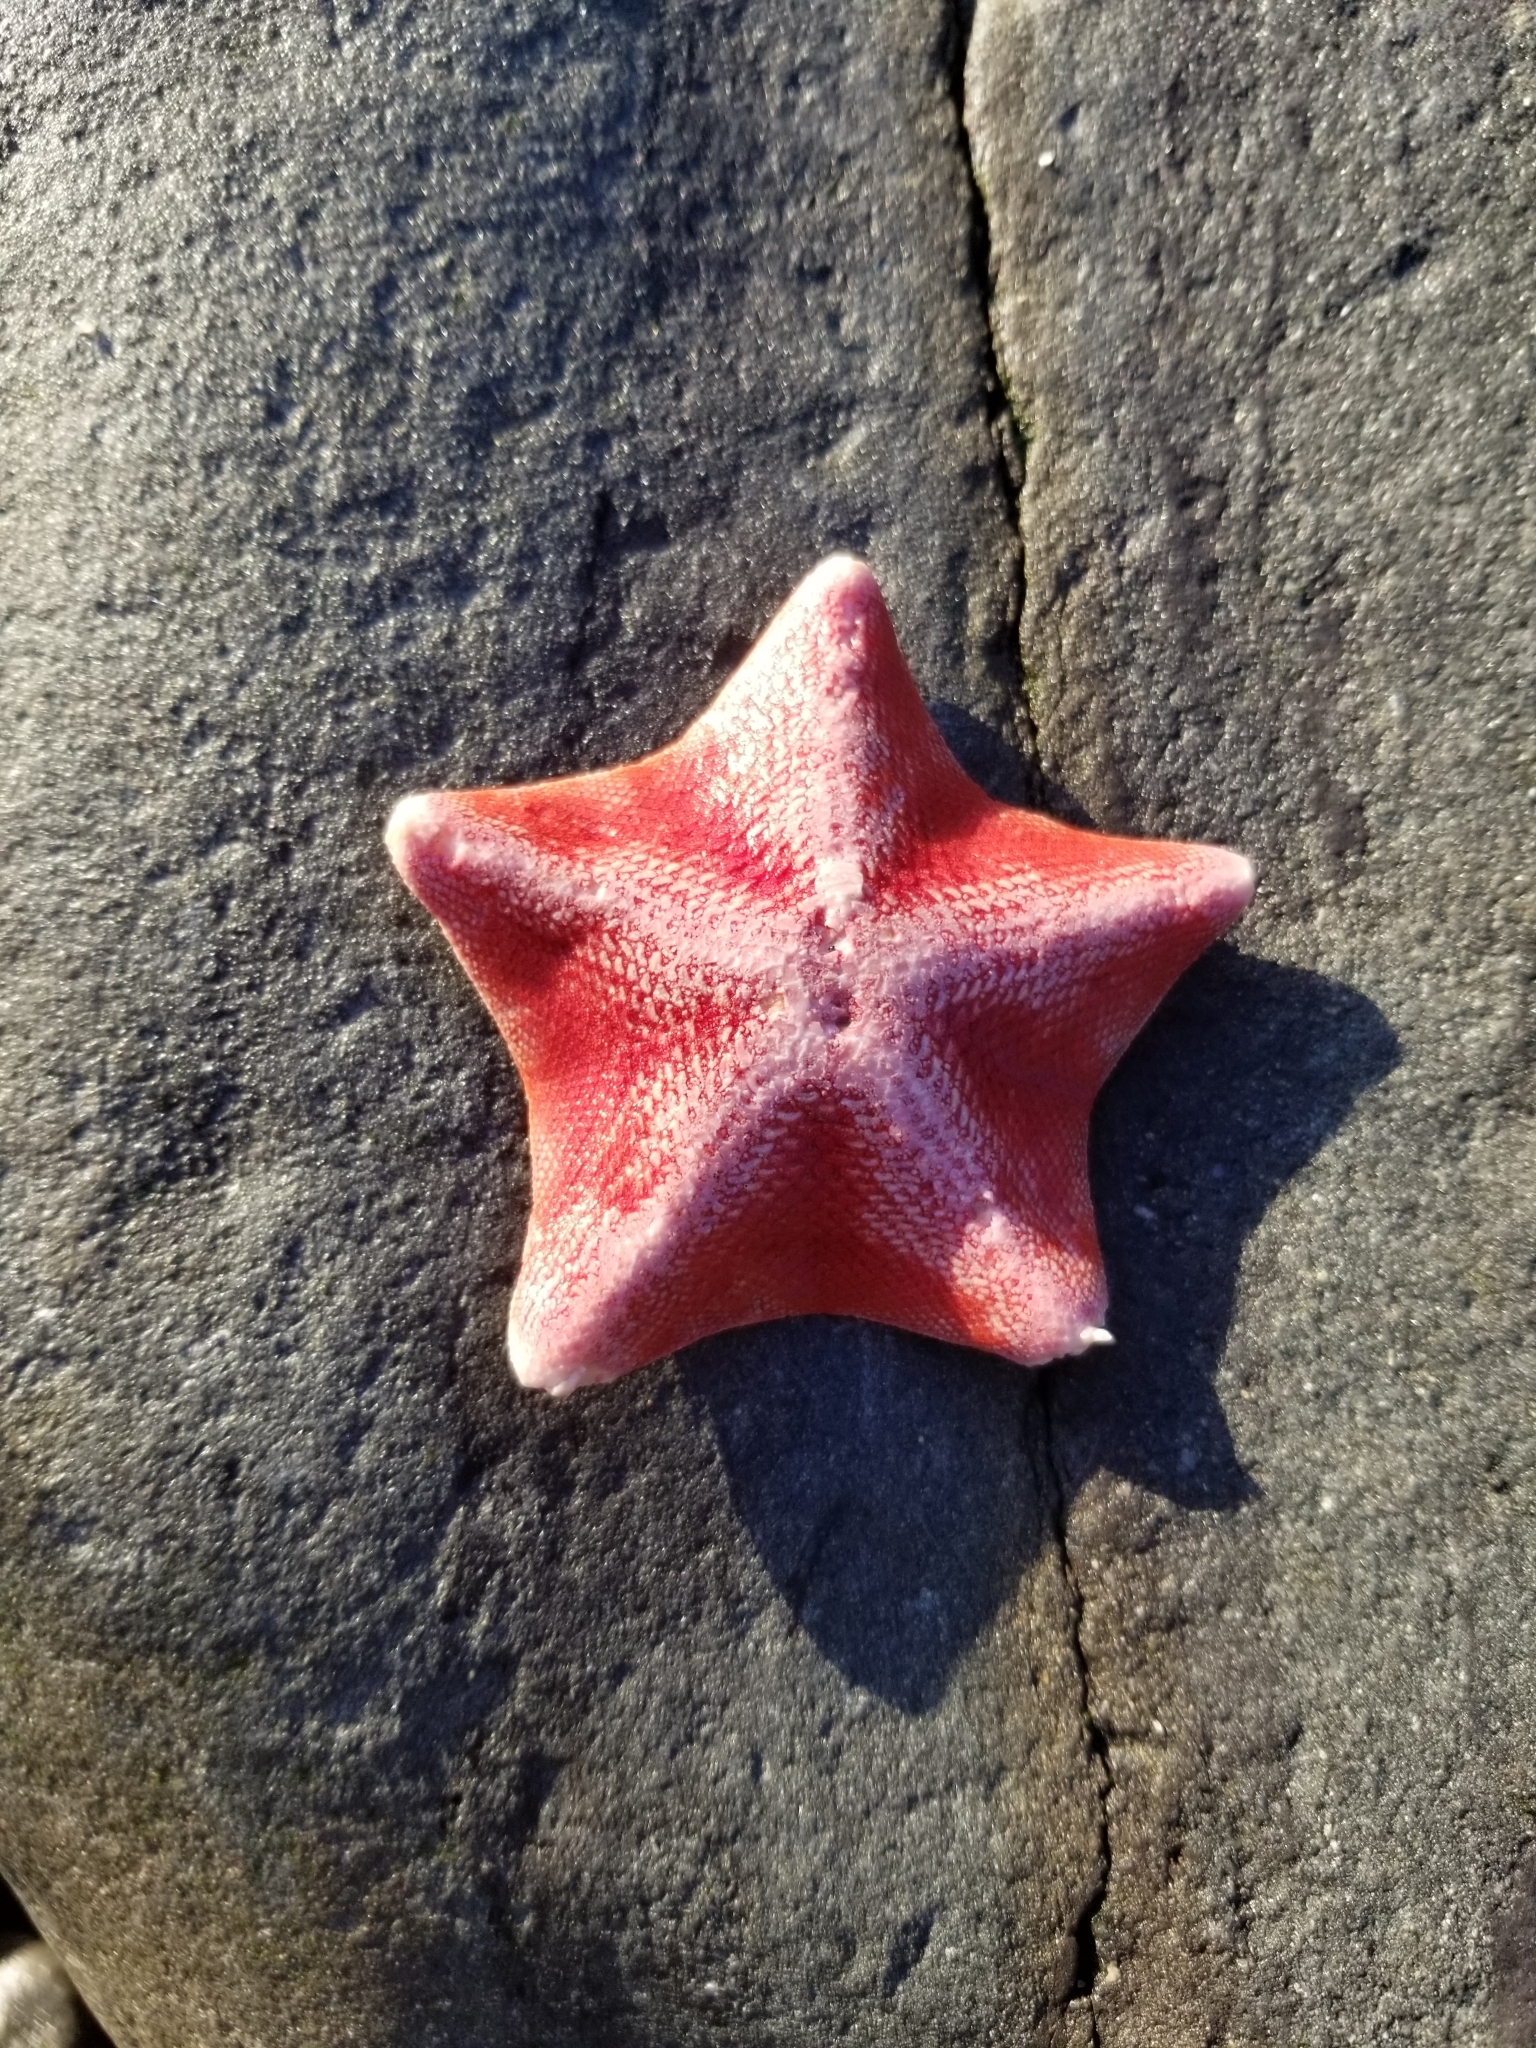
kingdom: Animalia
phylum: Echinodermata
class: Asteroidea
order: Valvatida
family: Asterinidae
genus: Patiria
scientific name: Patiria miniata
